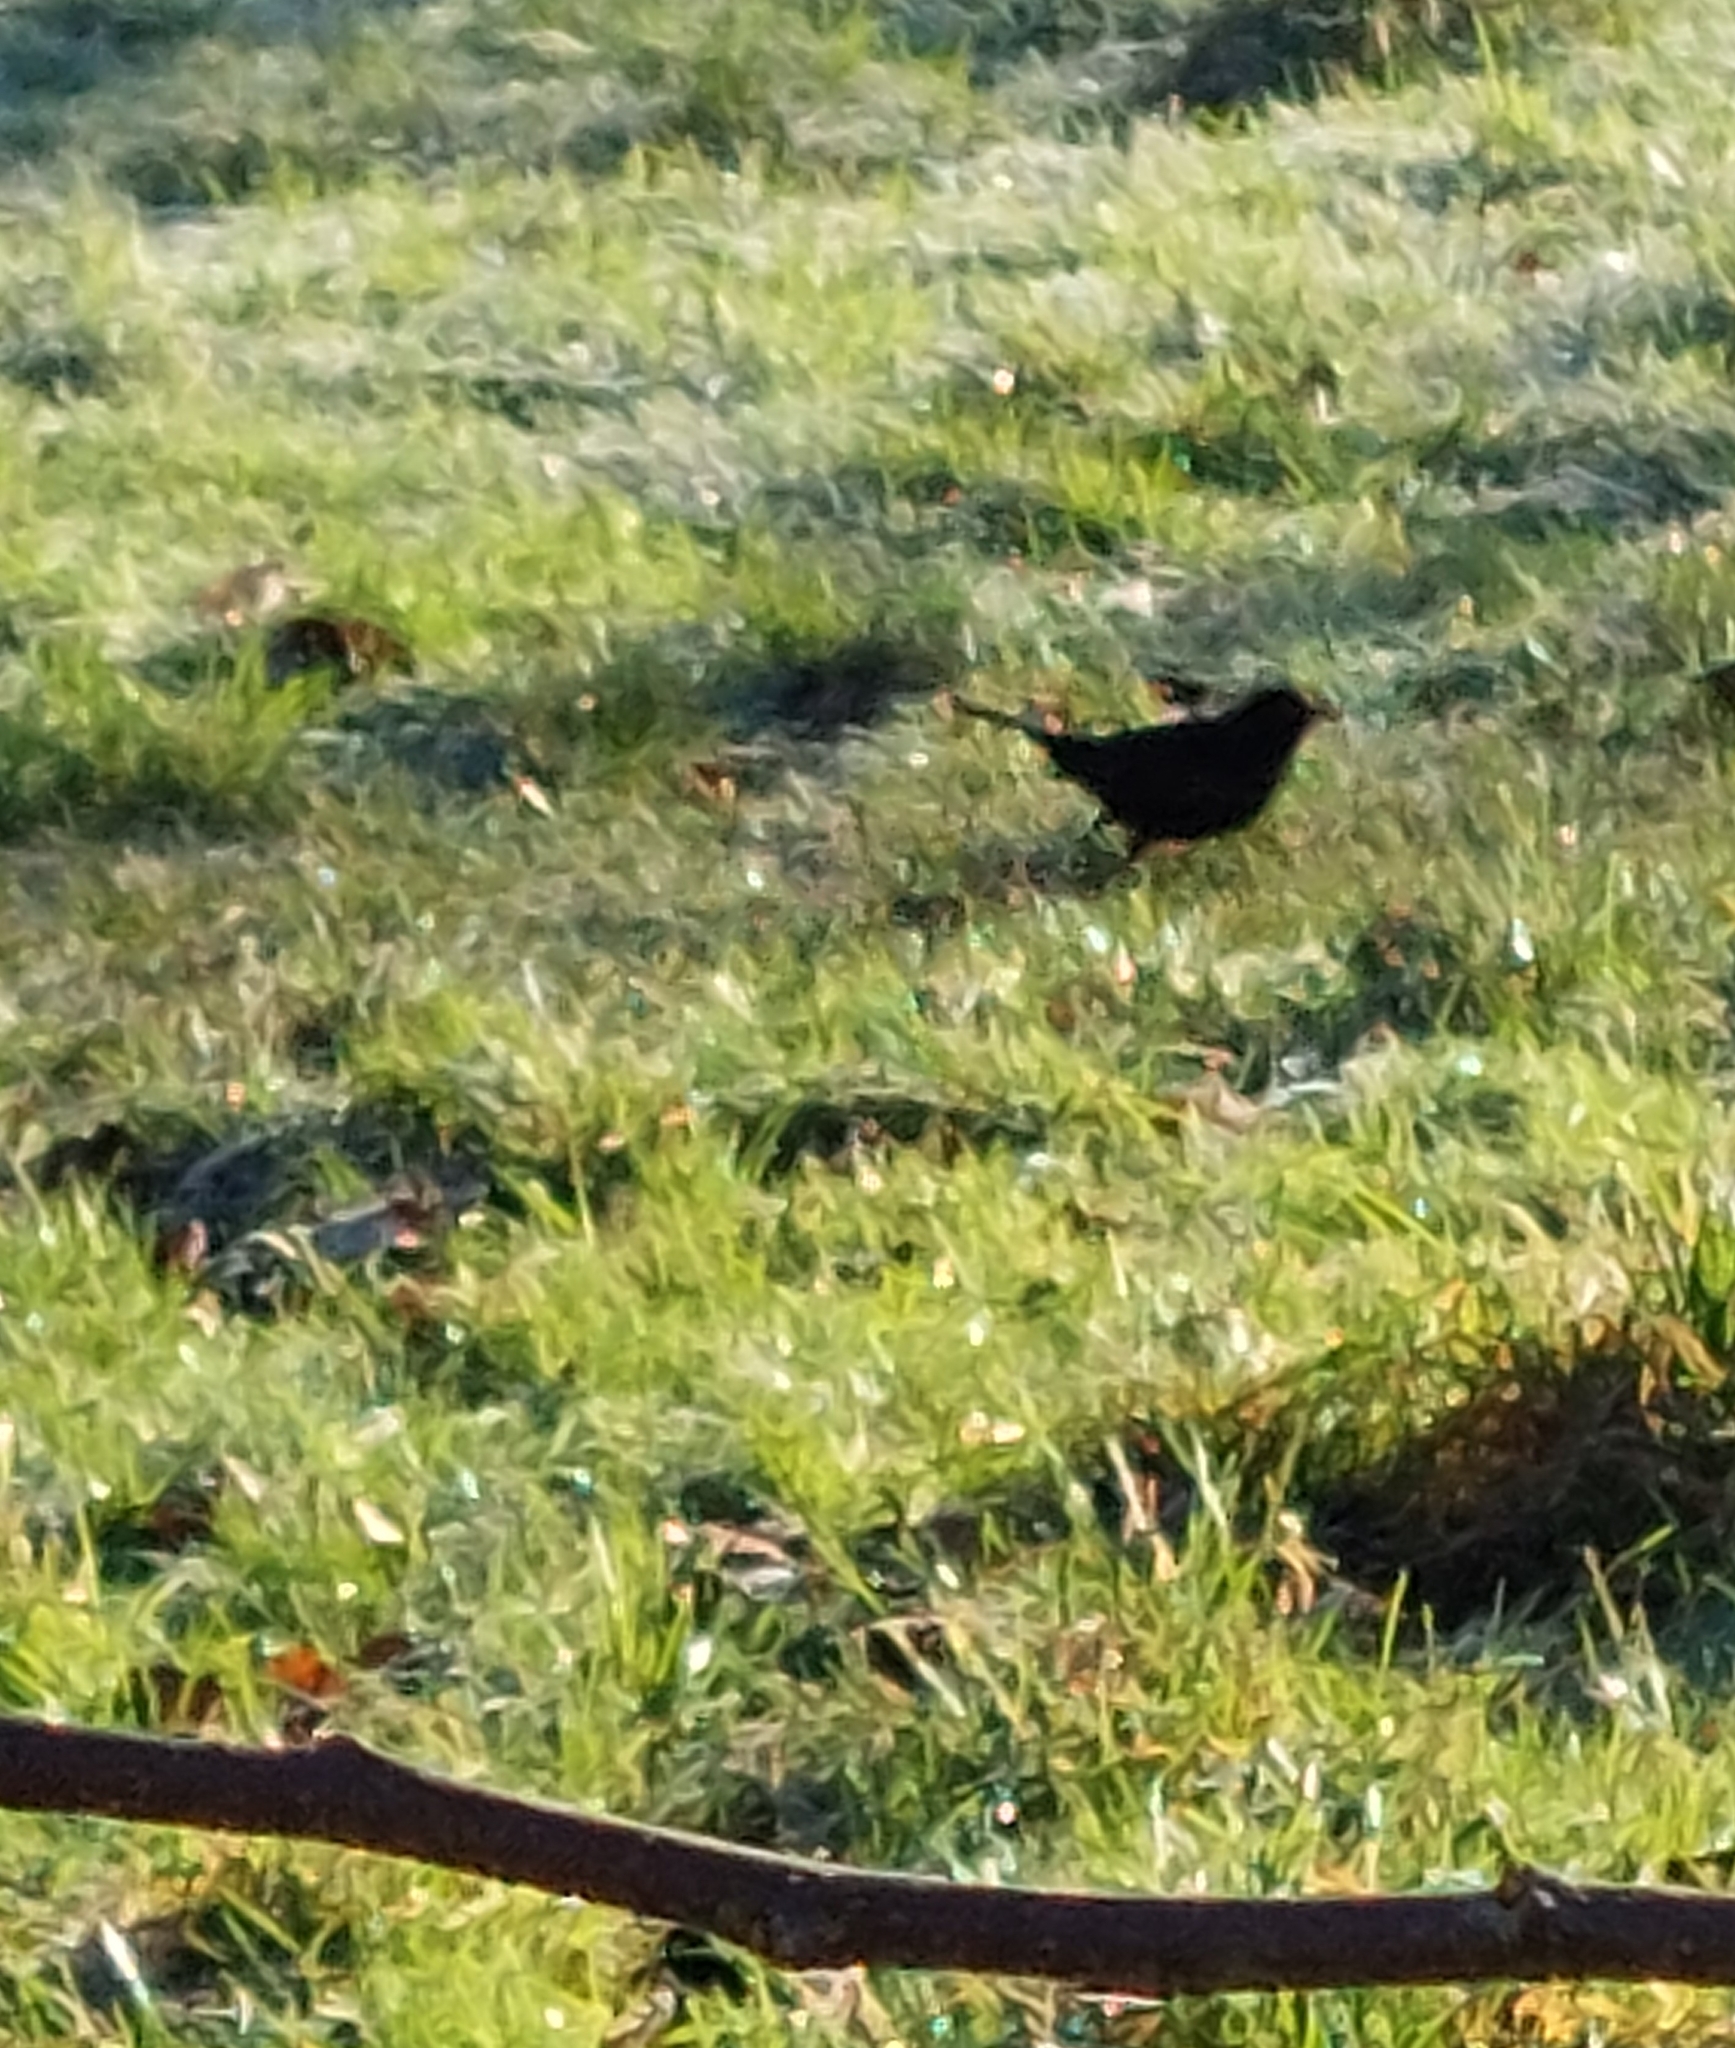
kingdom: Animalia
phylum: Chordata
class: Aves
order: Passeriformes
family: Turdidae
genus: Turdus
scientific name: Turdus merula
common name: Common blackbird
